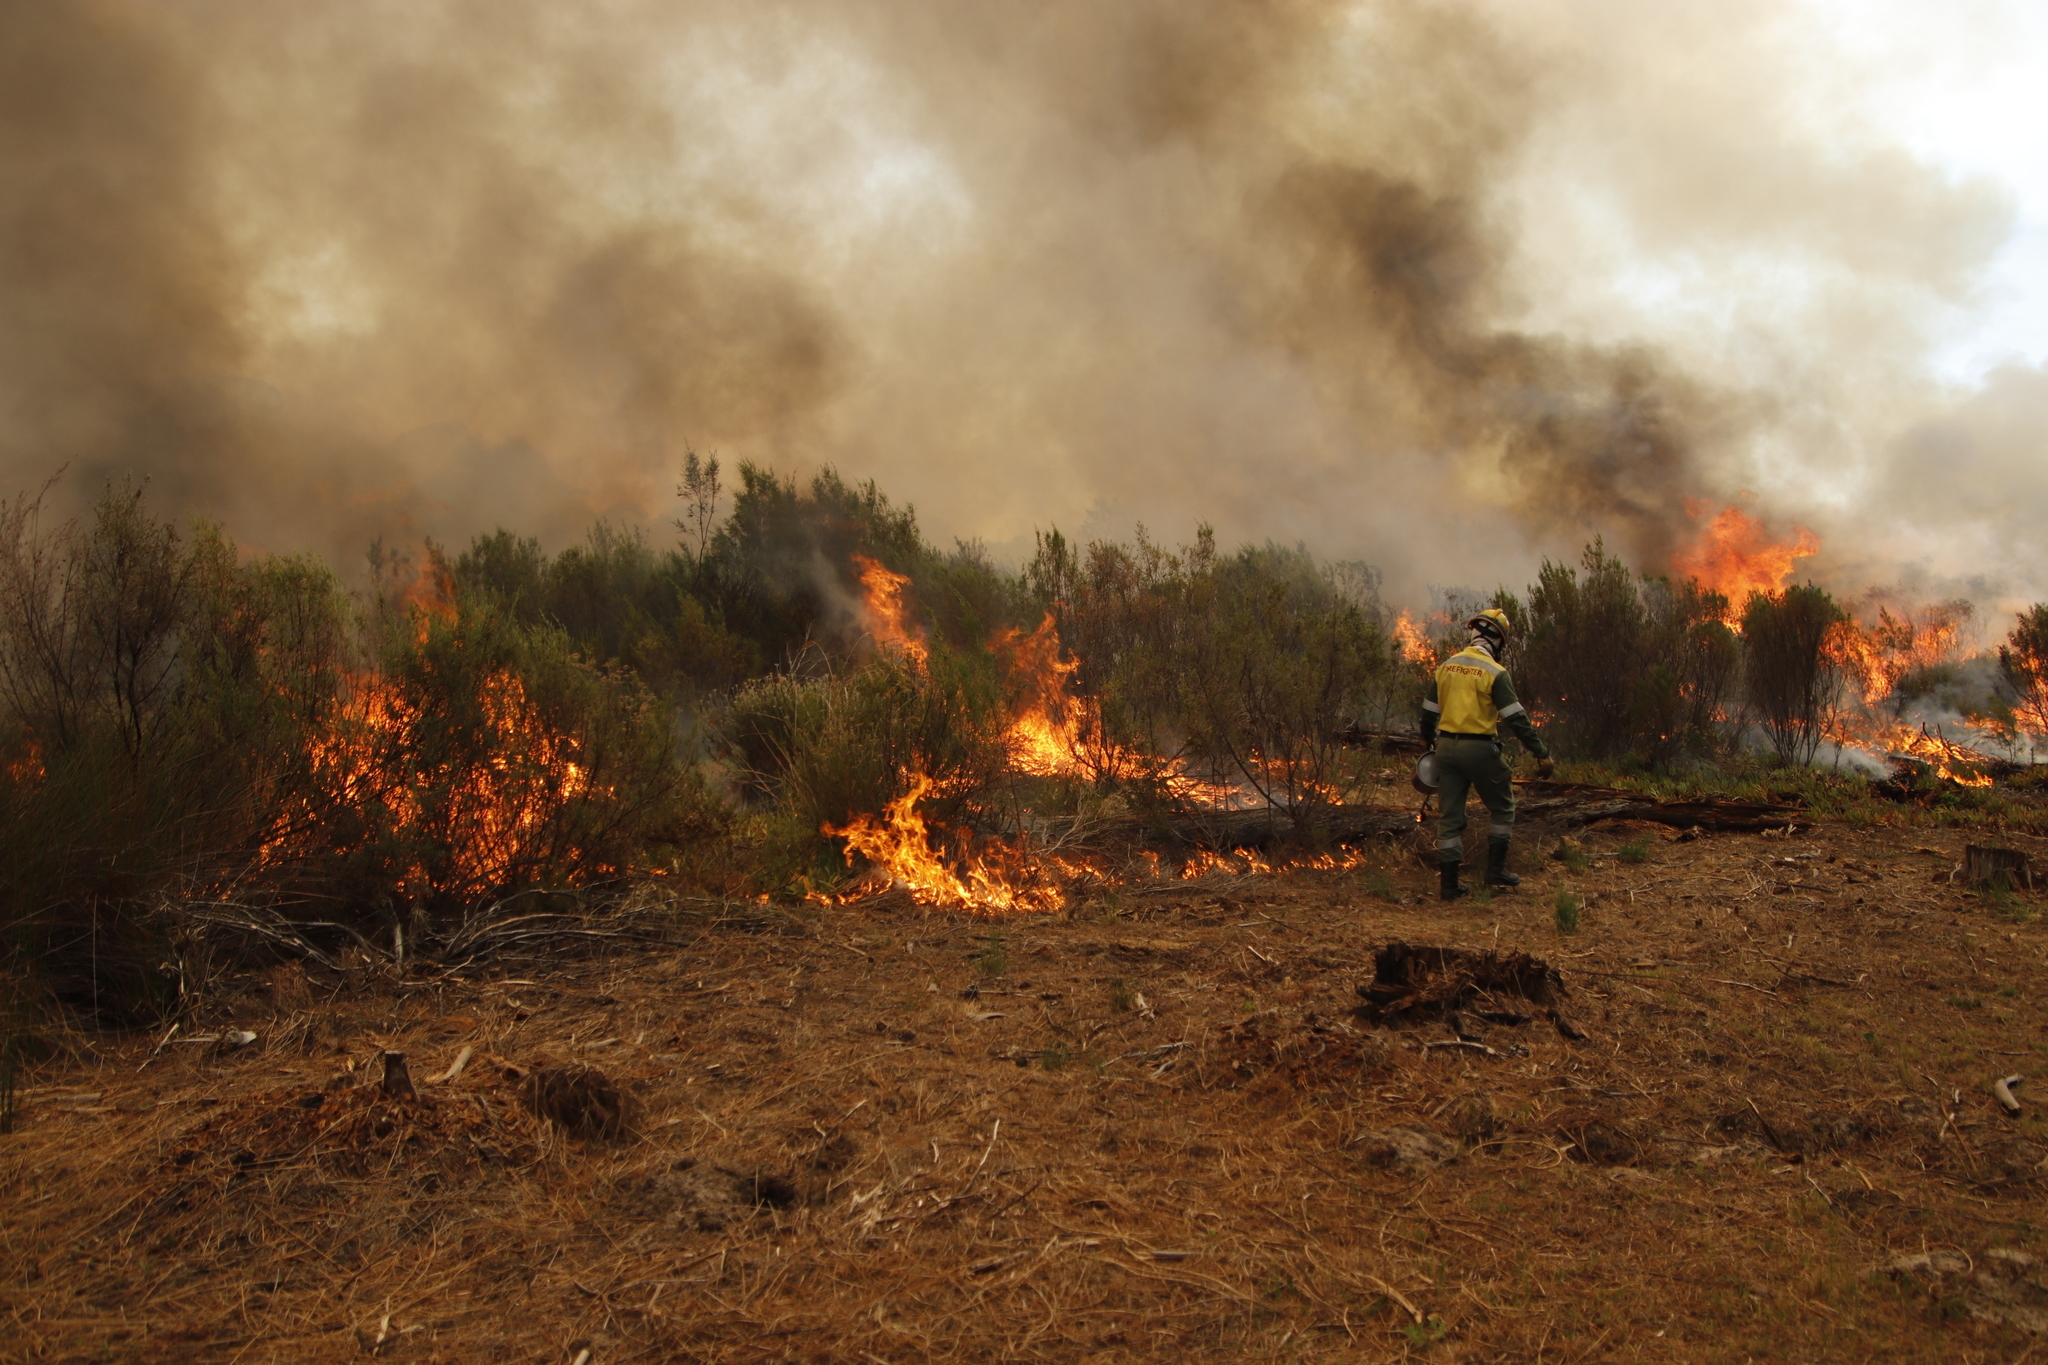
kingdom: Plantae
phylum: Tracheophyta
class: Magnoliopsida
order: Malvales
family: Thymelaeaceae
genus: Passerina
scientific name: Passerina corymbosa
